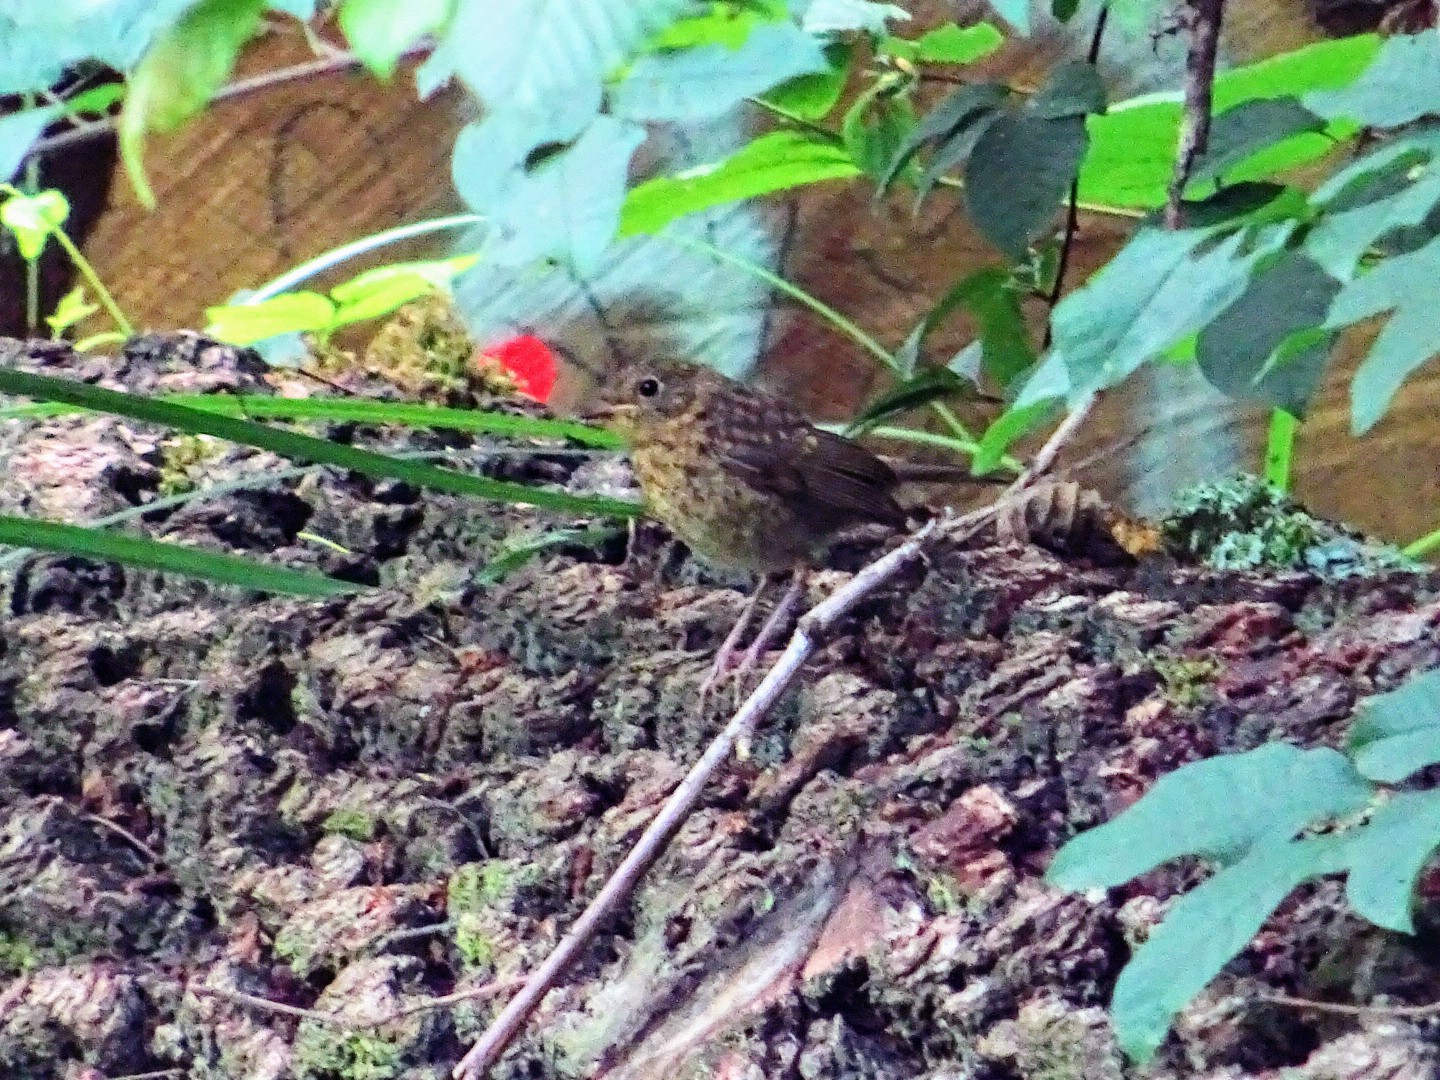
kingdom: Animalia
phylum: Chordata
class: Aves
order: Passeriformes
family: Muscicapidae
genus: Erithacus
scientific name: Erithacus rubecula
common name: European robin
